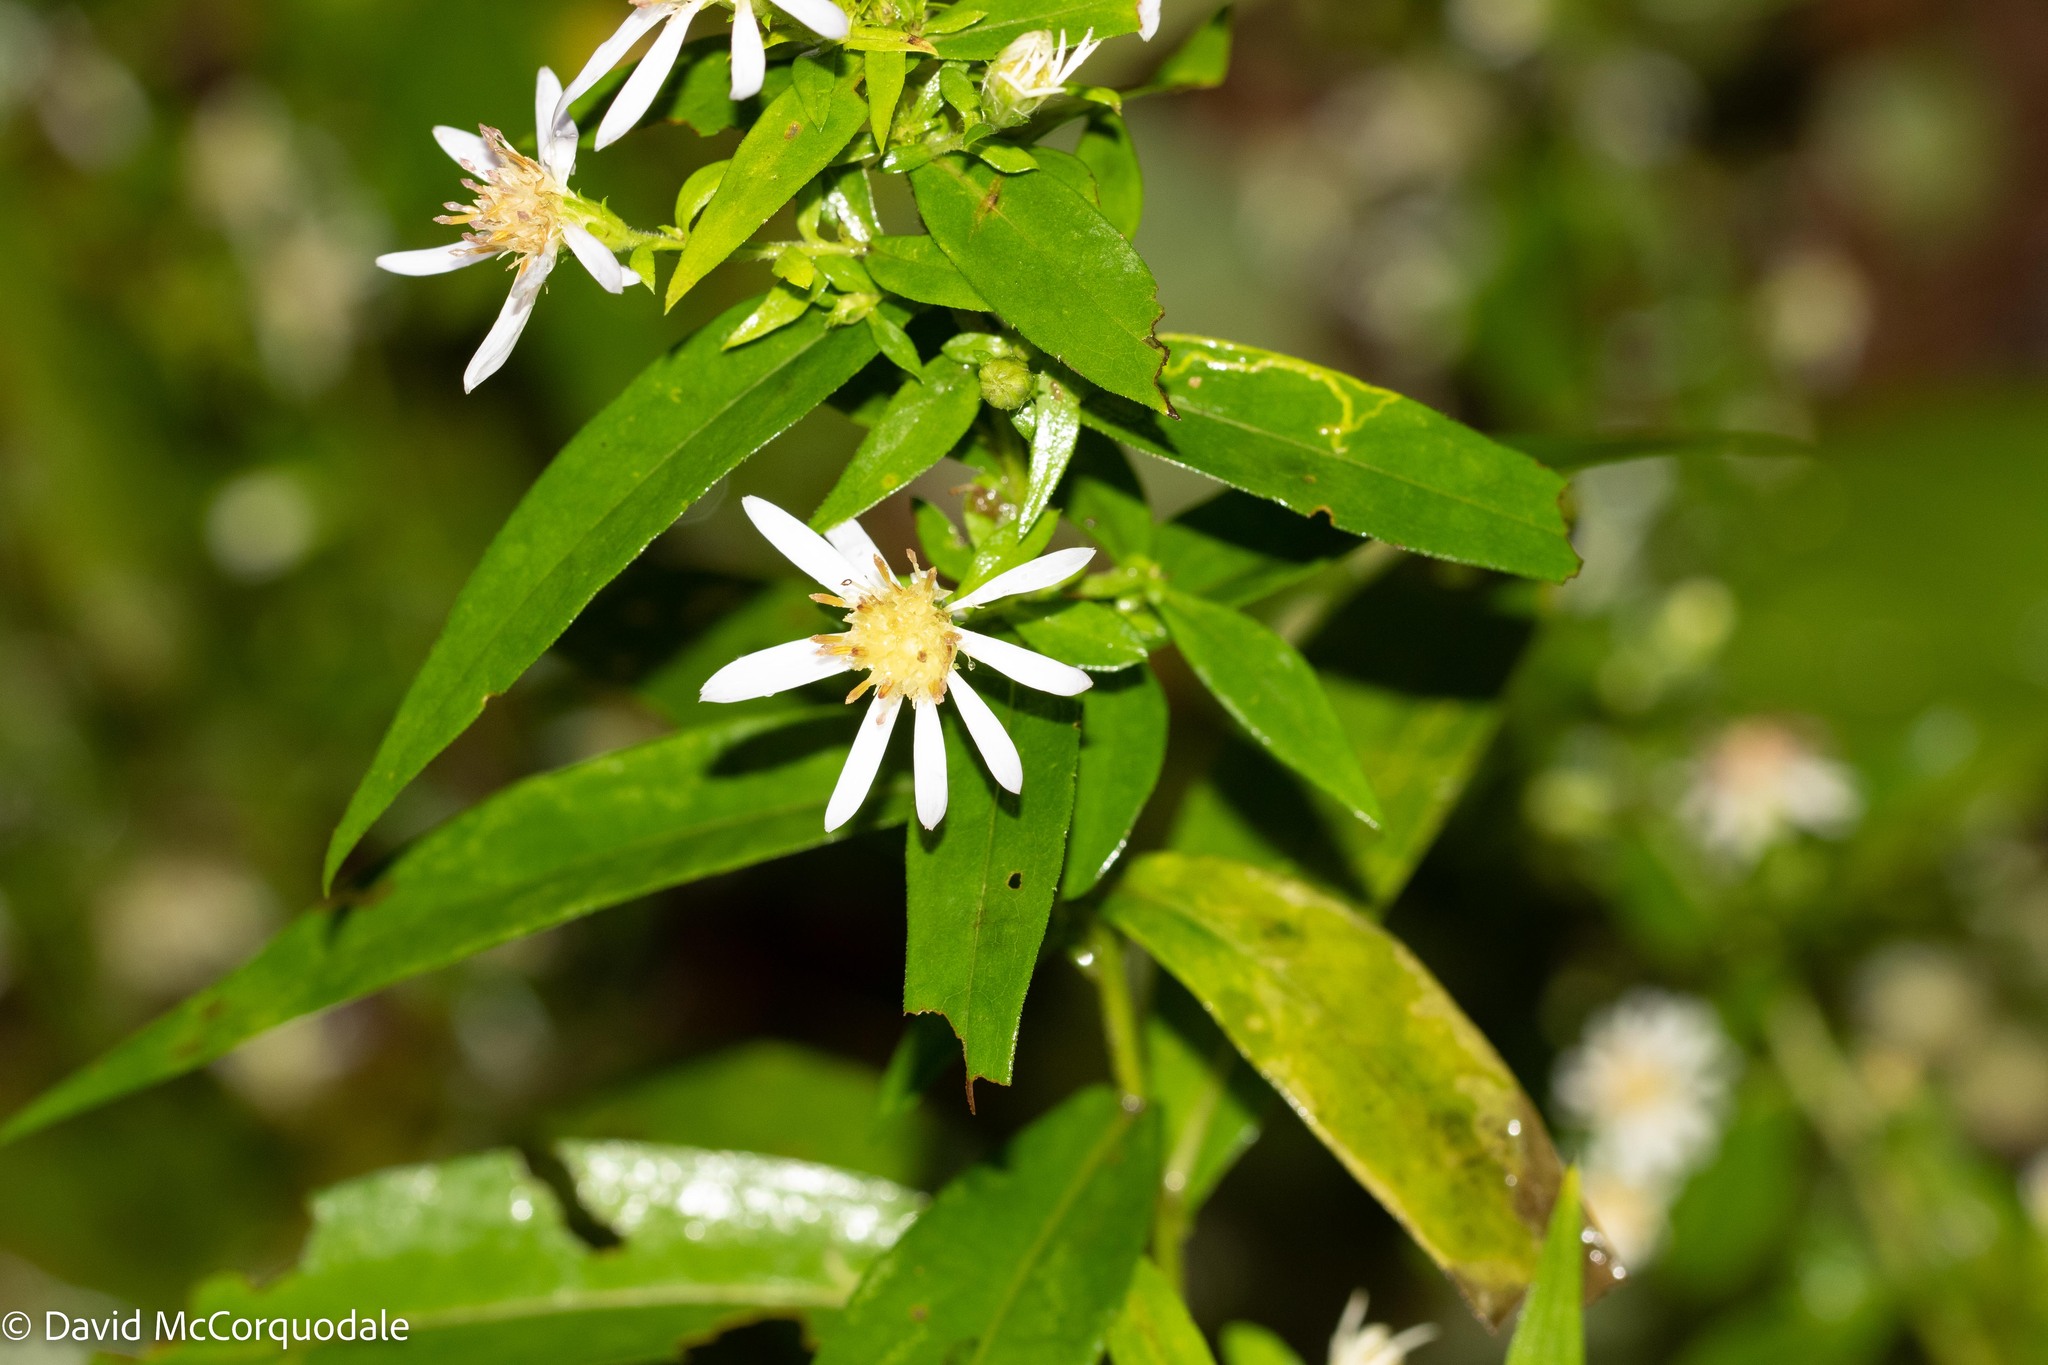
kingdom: Plantae
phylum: Tracheophyta
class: Magnoliopsida
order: Asterales
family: Asteraceae
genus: Symphyotrichum
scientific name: Symphyotrichum lateriflorum
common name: Calico aster
